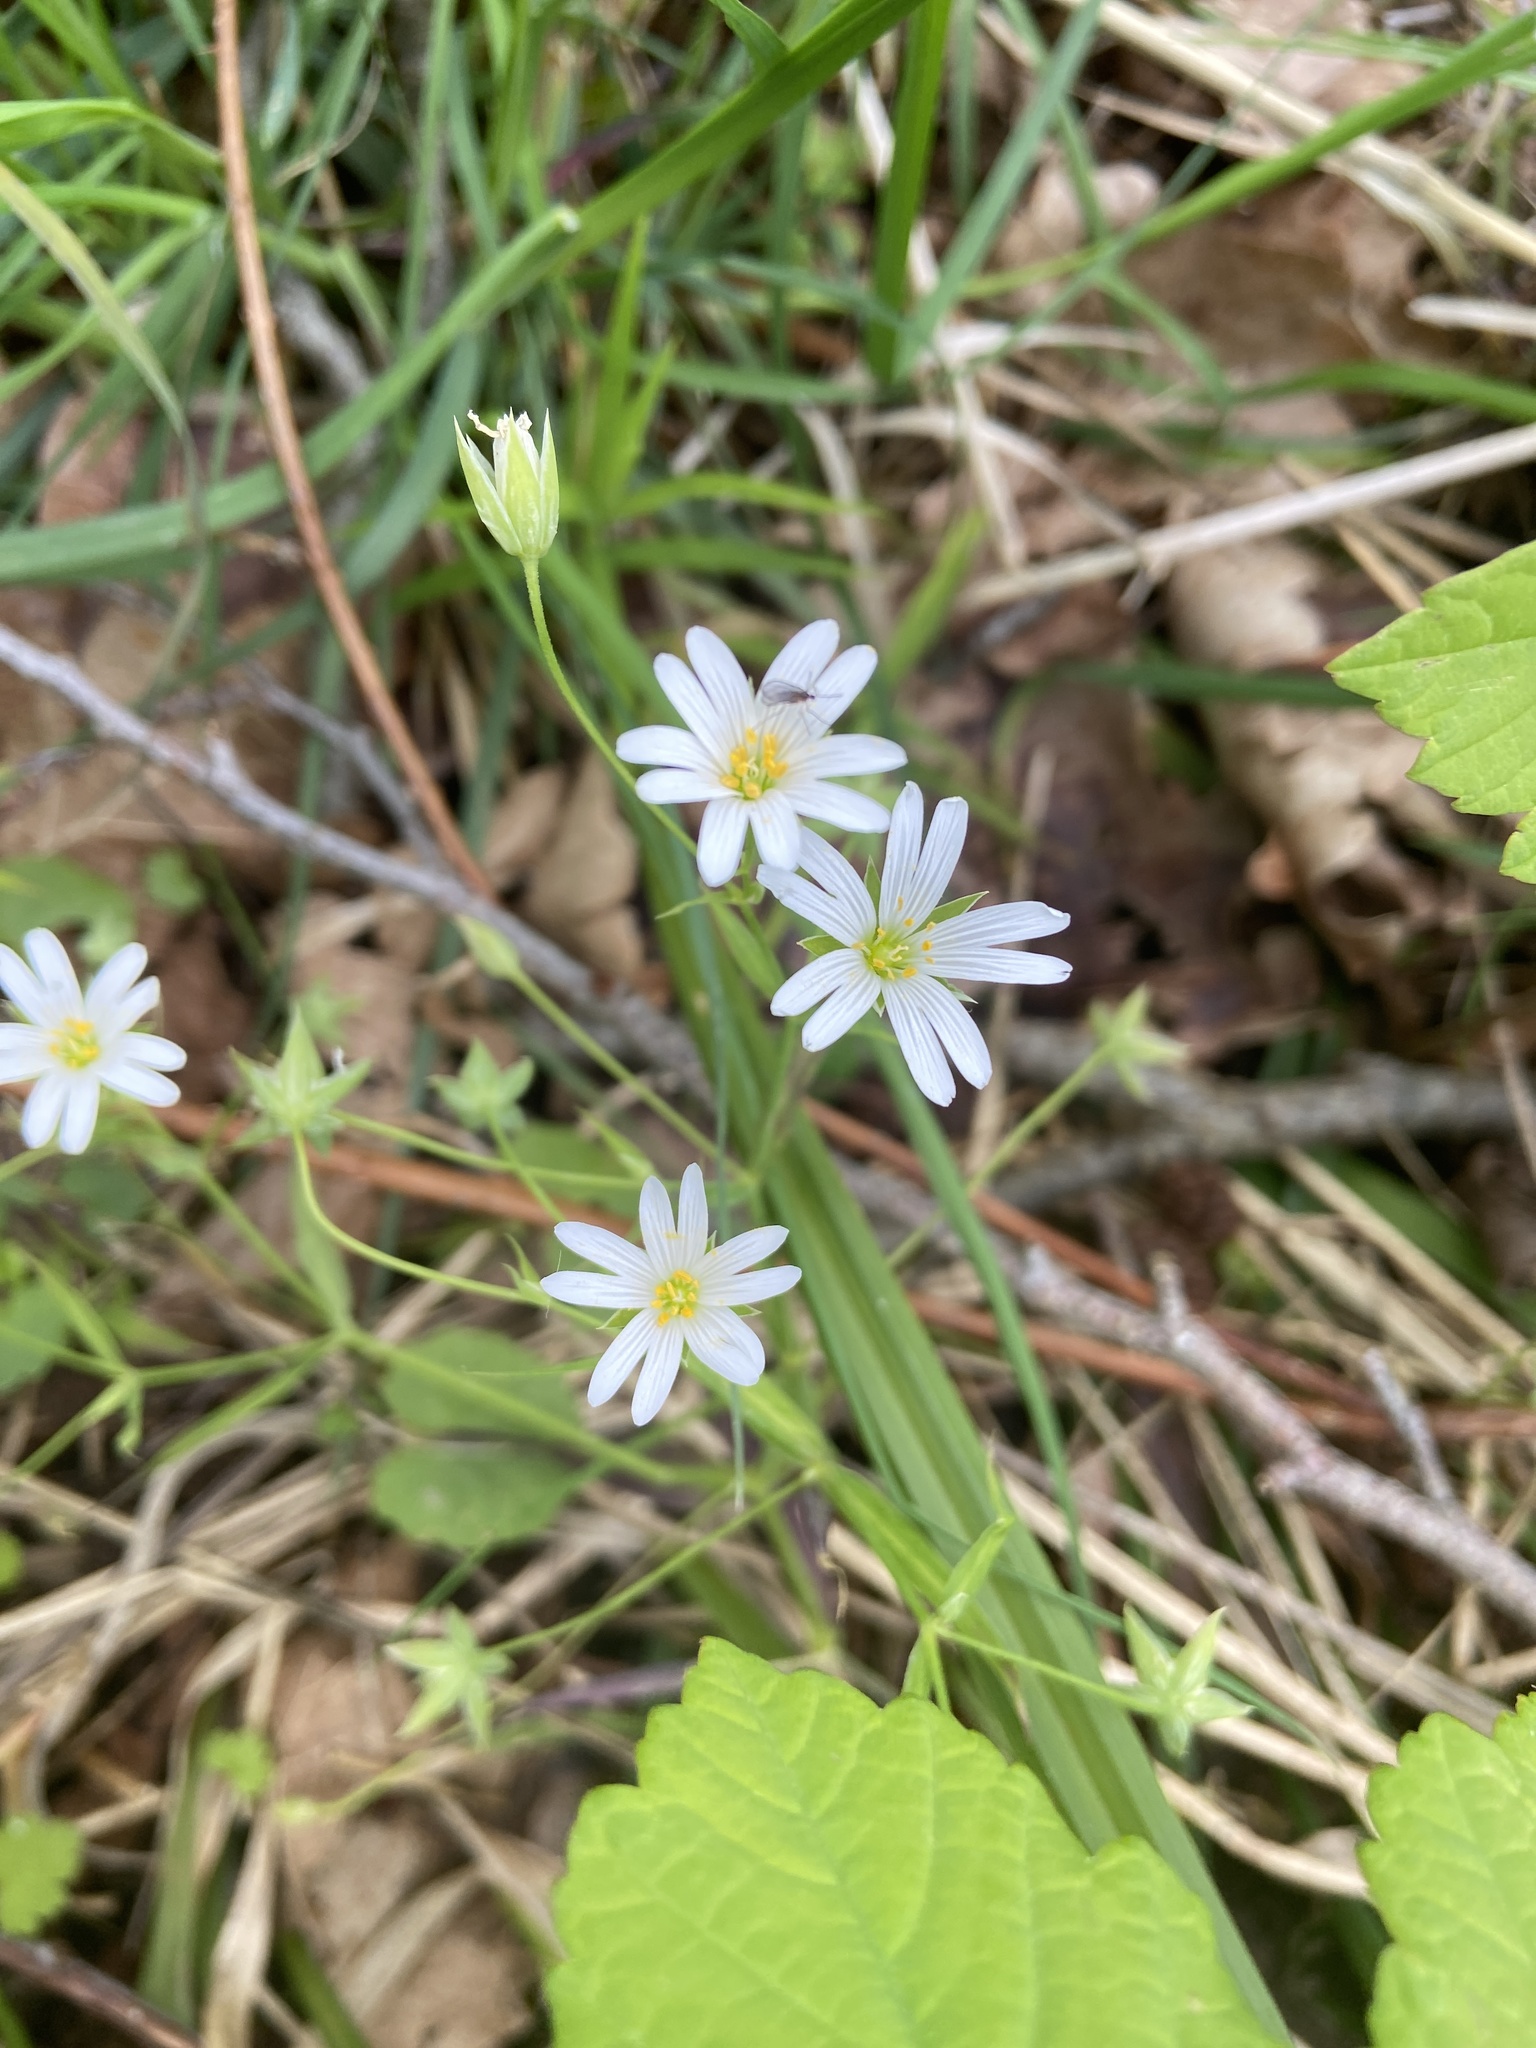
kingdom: Plantae
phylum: Tracheophyta
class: Magnoliopsida
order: Caryophyllales
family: Caryophyllaceae
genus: Rabelera
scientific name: Rabelera holostea
